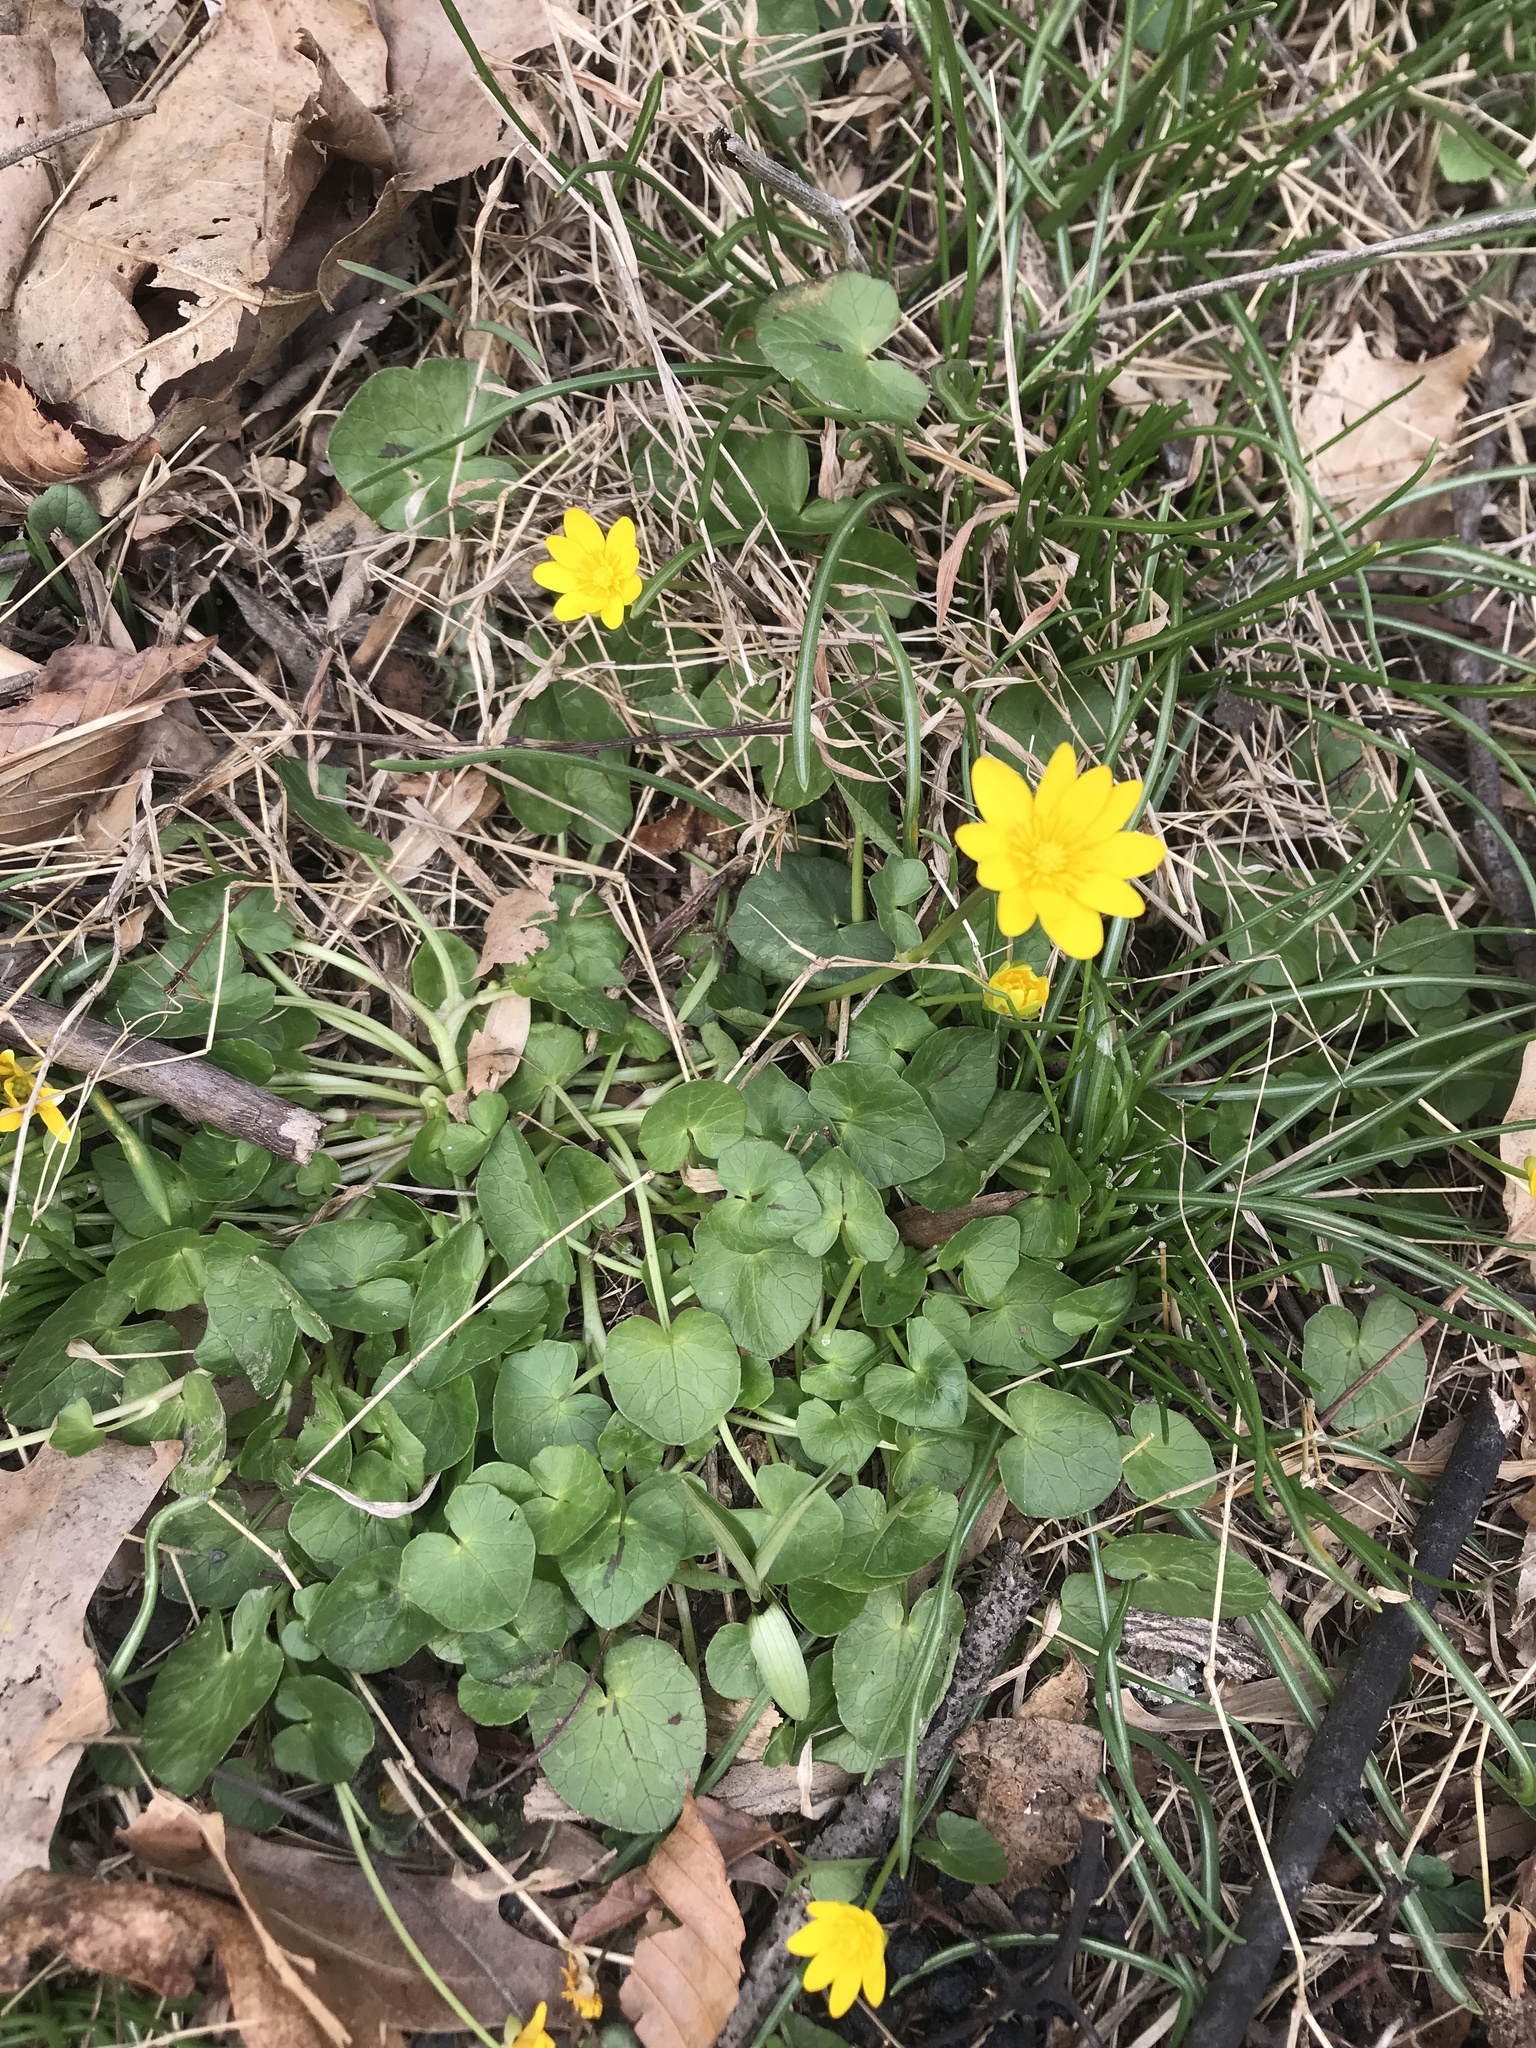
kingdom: Plantae
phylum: Tracheophyta
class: Magnoliopsida
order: Ranunculales
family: Ranunculaceae
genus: Ficaria
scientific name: Ficaria verna
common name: Lesser celandine
